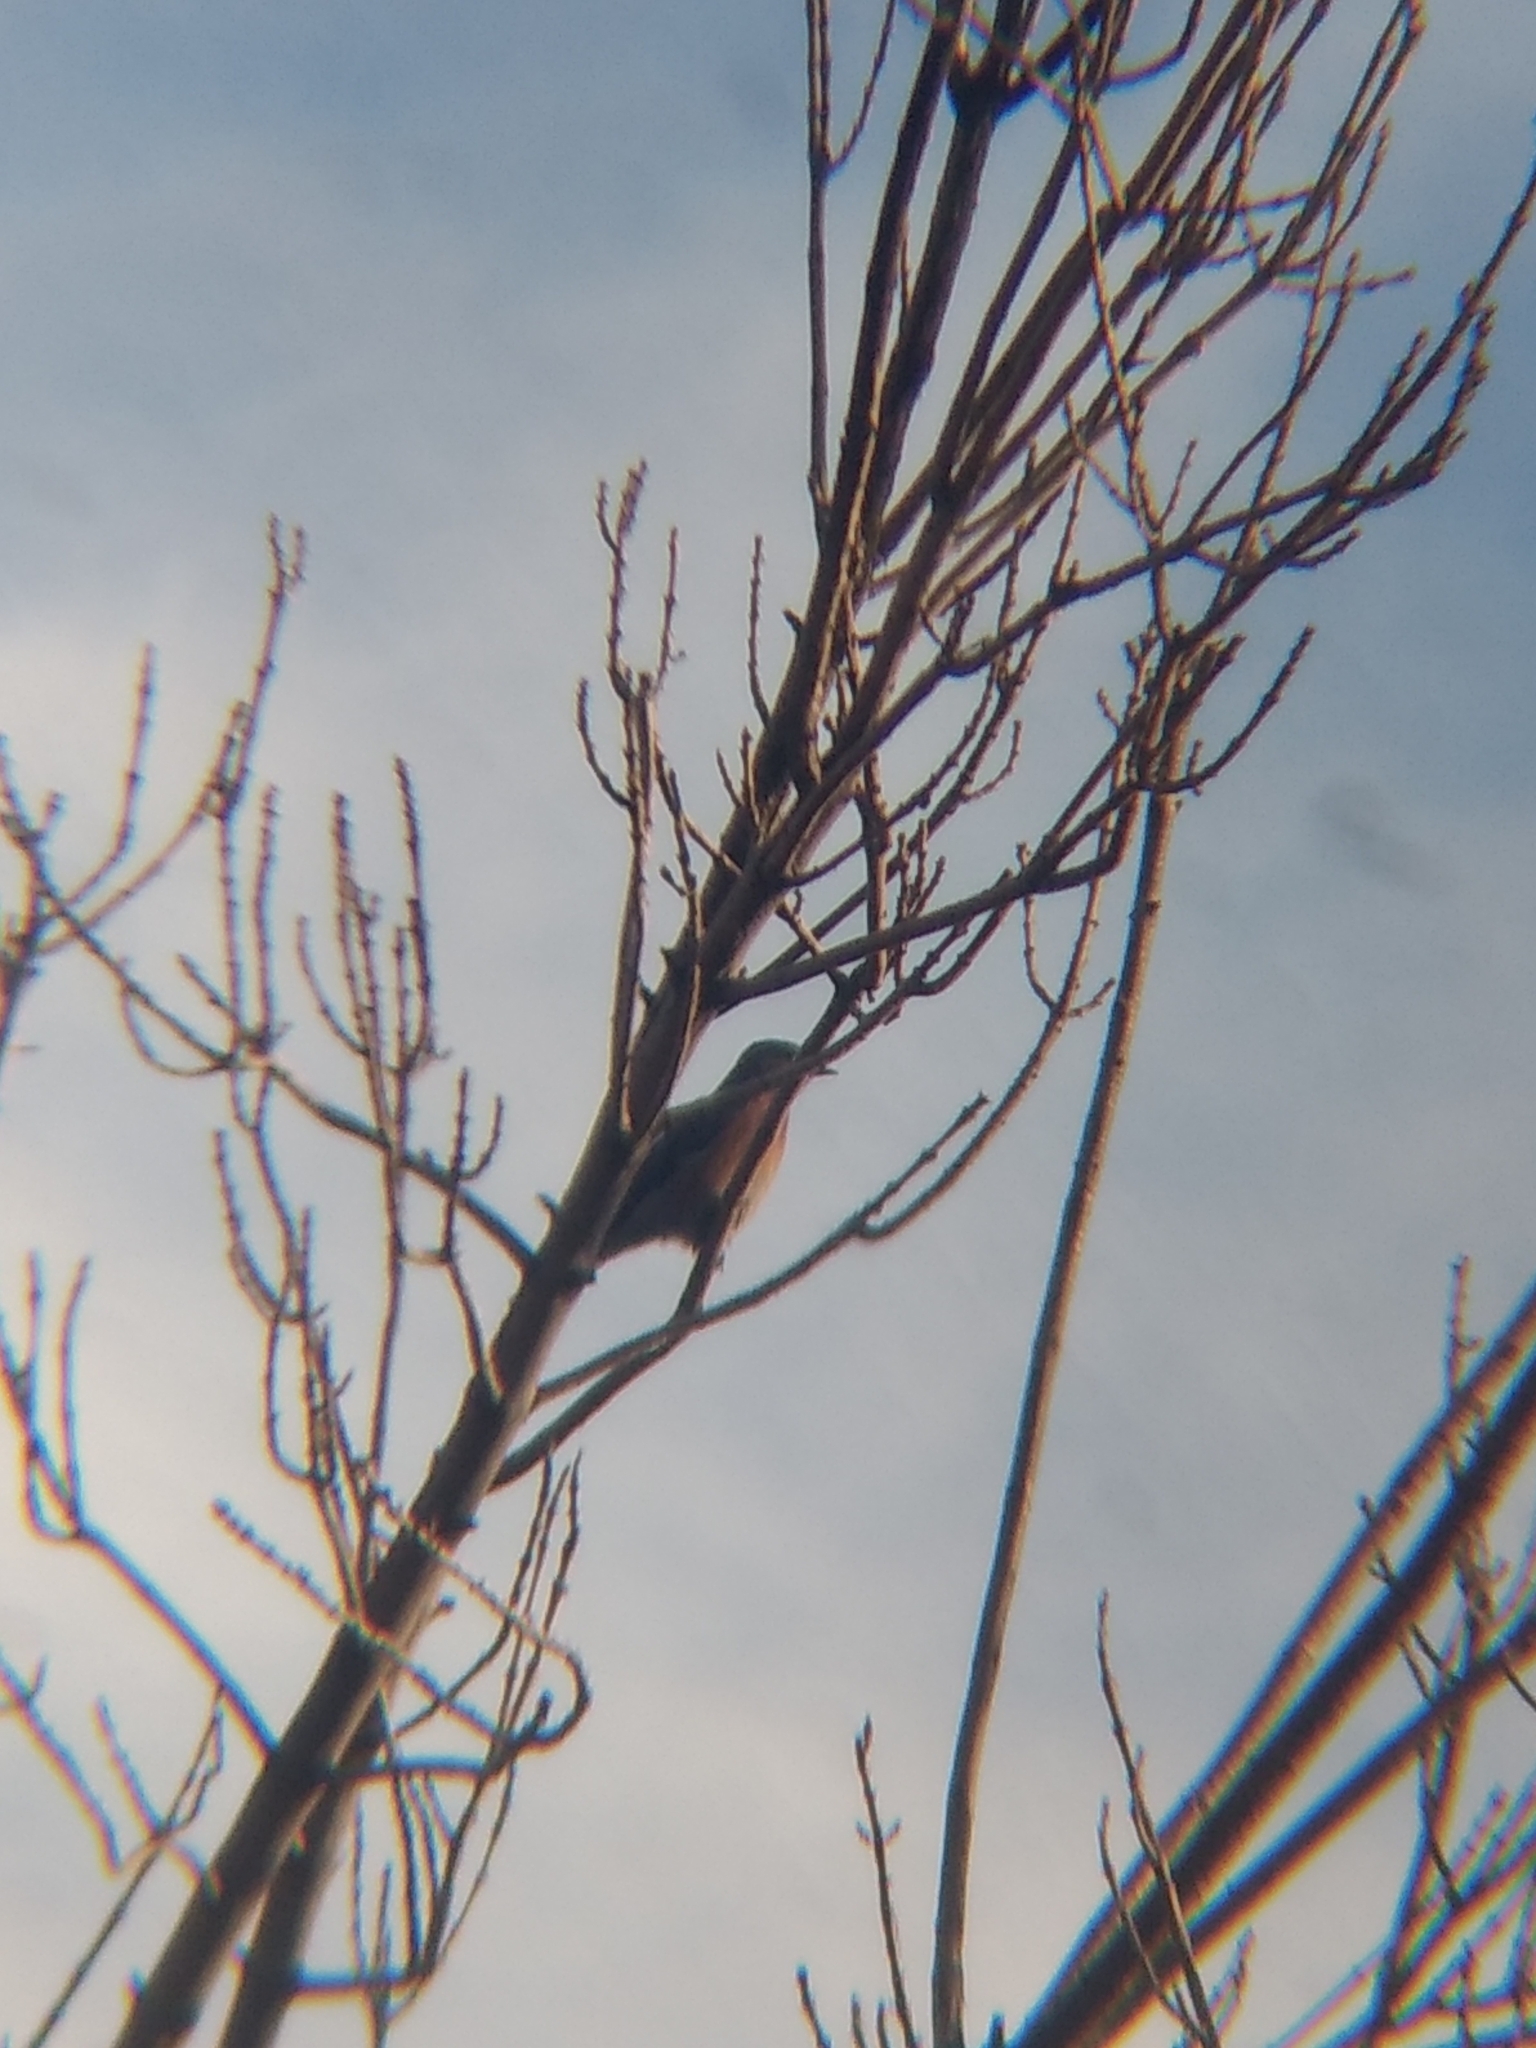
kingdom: Animalia
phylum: Chordata
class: Aves
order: Passeriformes
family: Turdidae
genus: Sialia
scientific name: Sialia mexicana
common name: Western bluebird
